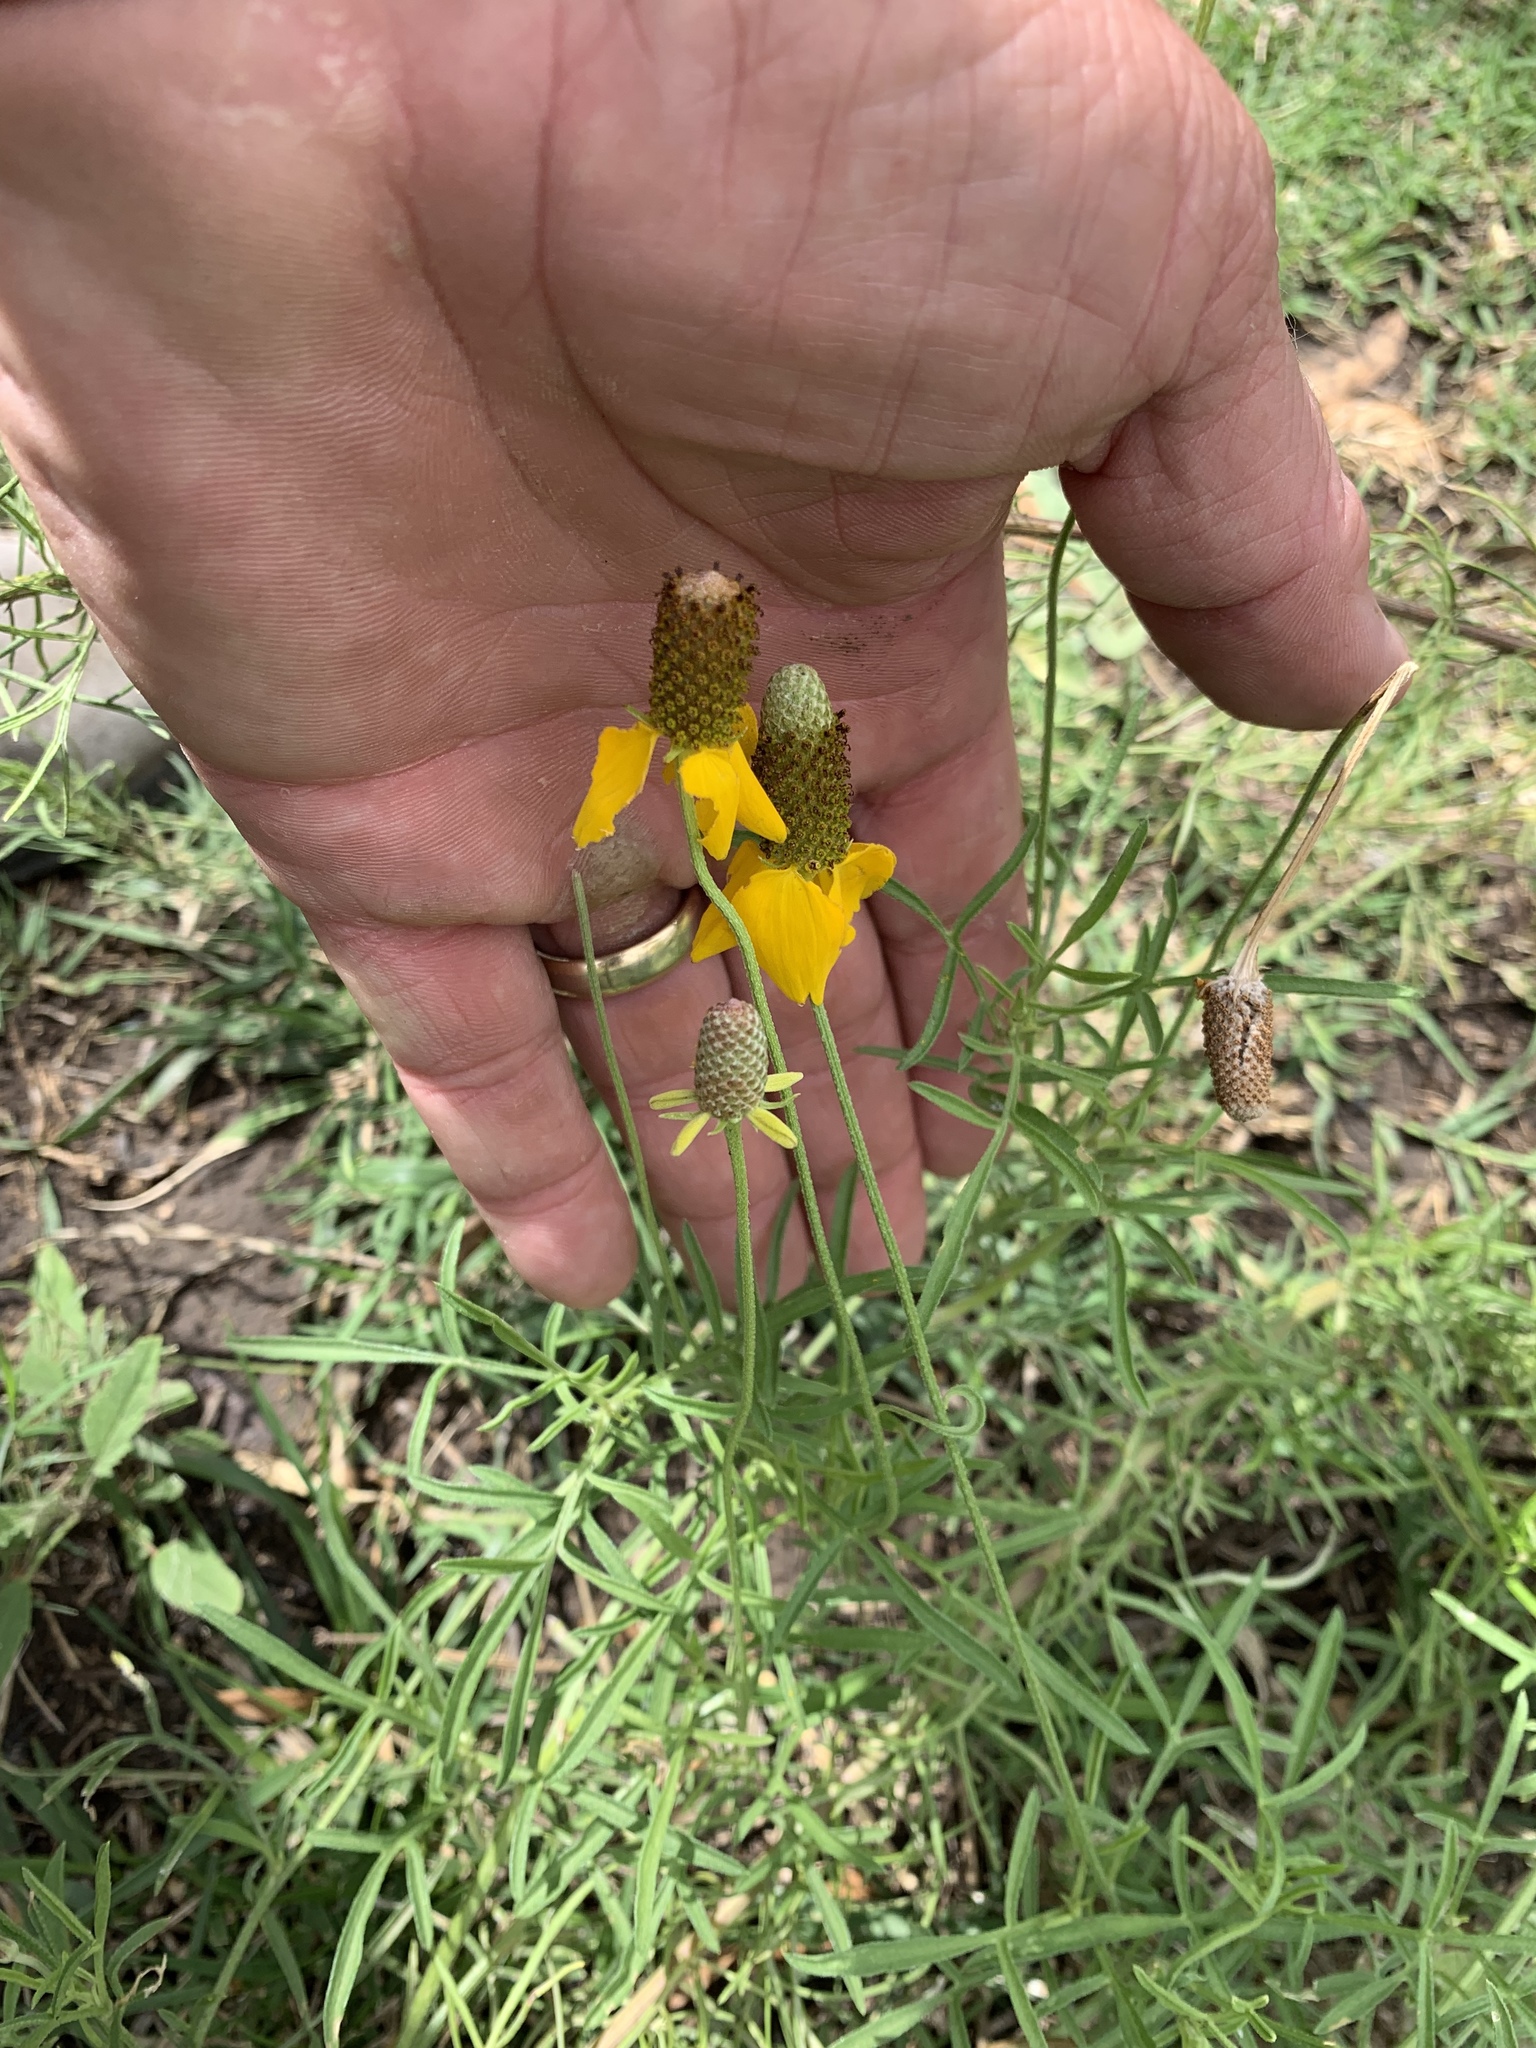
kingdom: Plantae
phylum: Tracheophyta
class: Magnoliopsida
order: Asterales
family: Asteraceae
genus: Ratibida
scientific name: Ratibida columnifera
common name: Prairie coneflower
